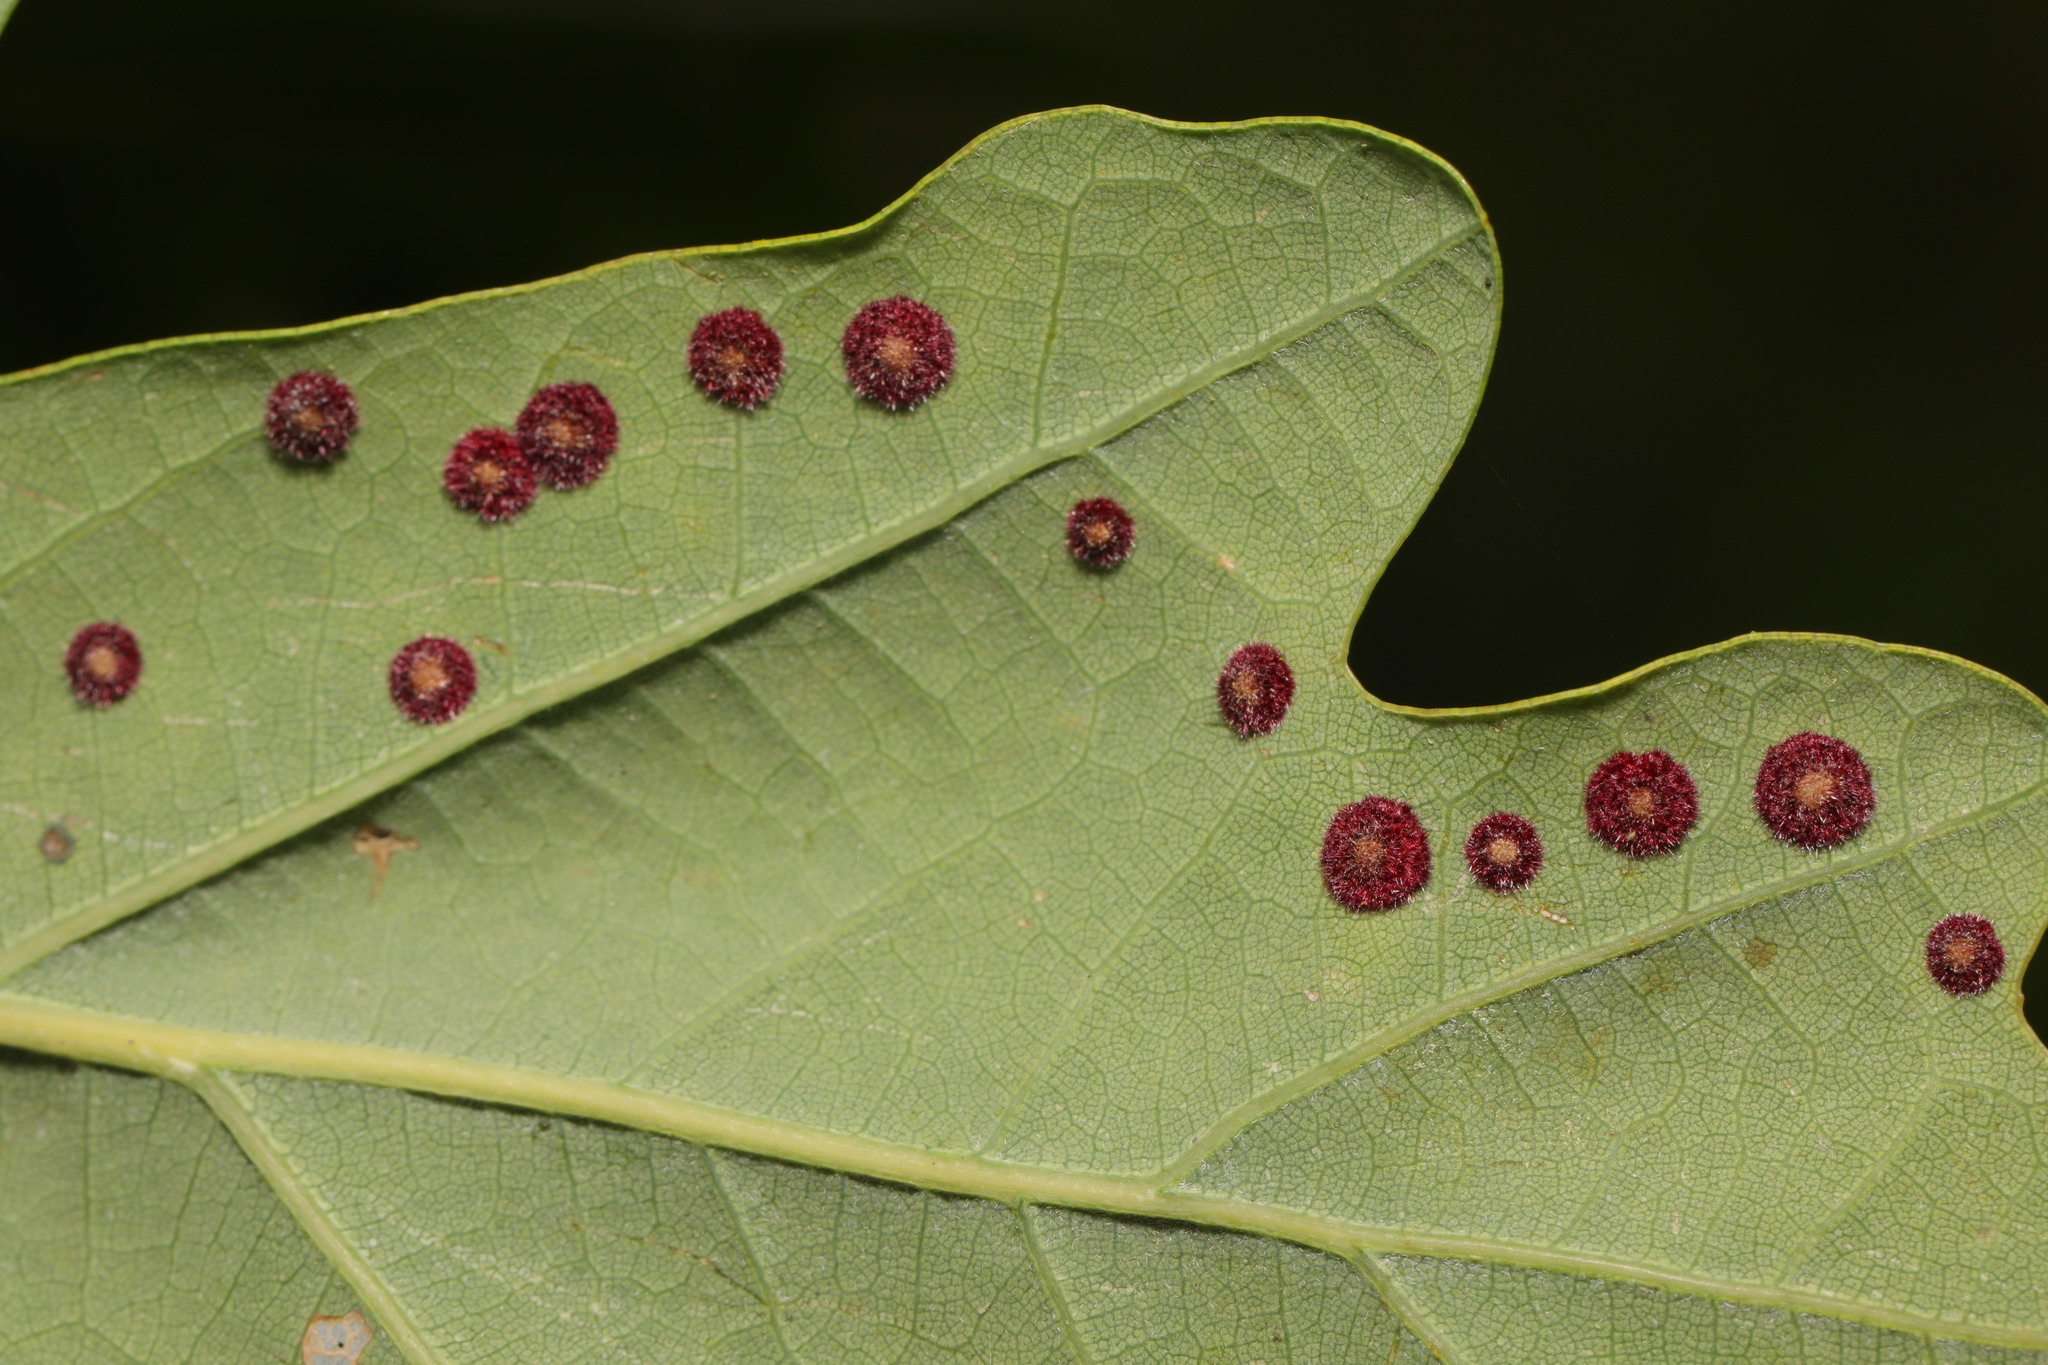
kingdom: Animalia
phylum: Arthropoda
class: Insecta
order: Hymenoptera
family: Cynipidae
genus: Neuroterus
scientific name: Neuroterus quercusbaccarum
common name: Common spangle gall
